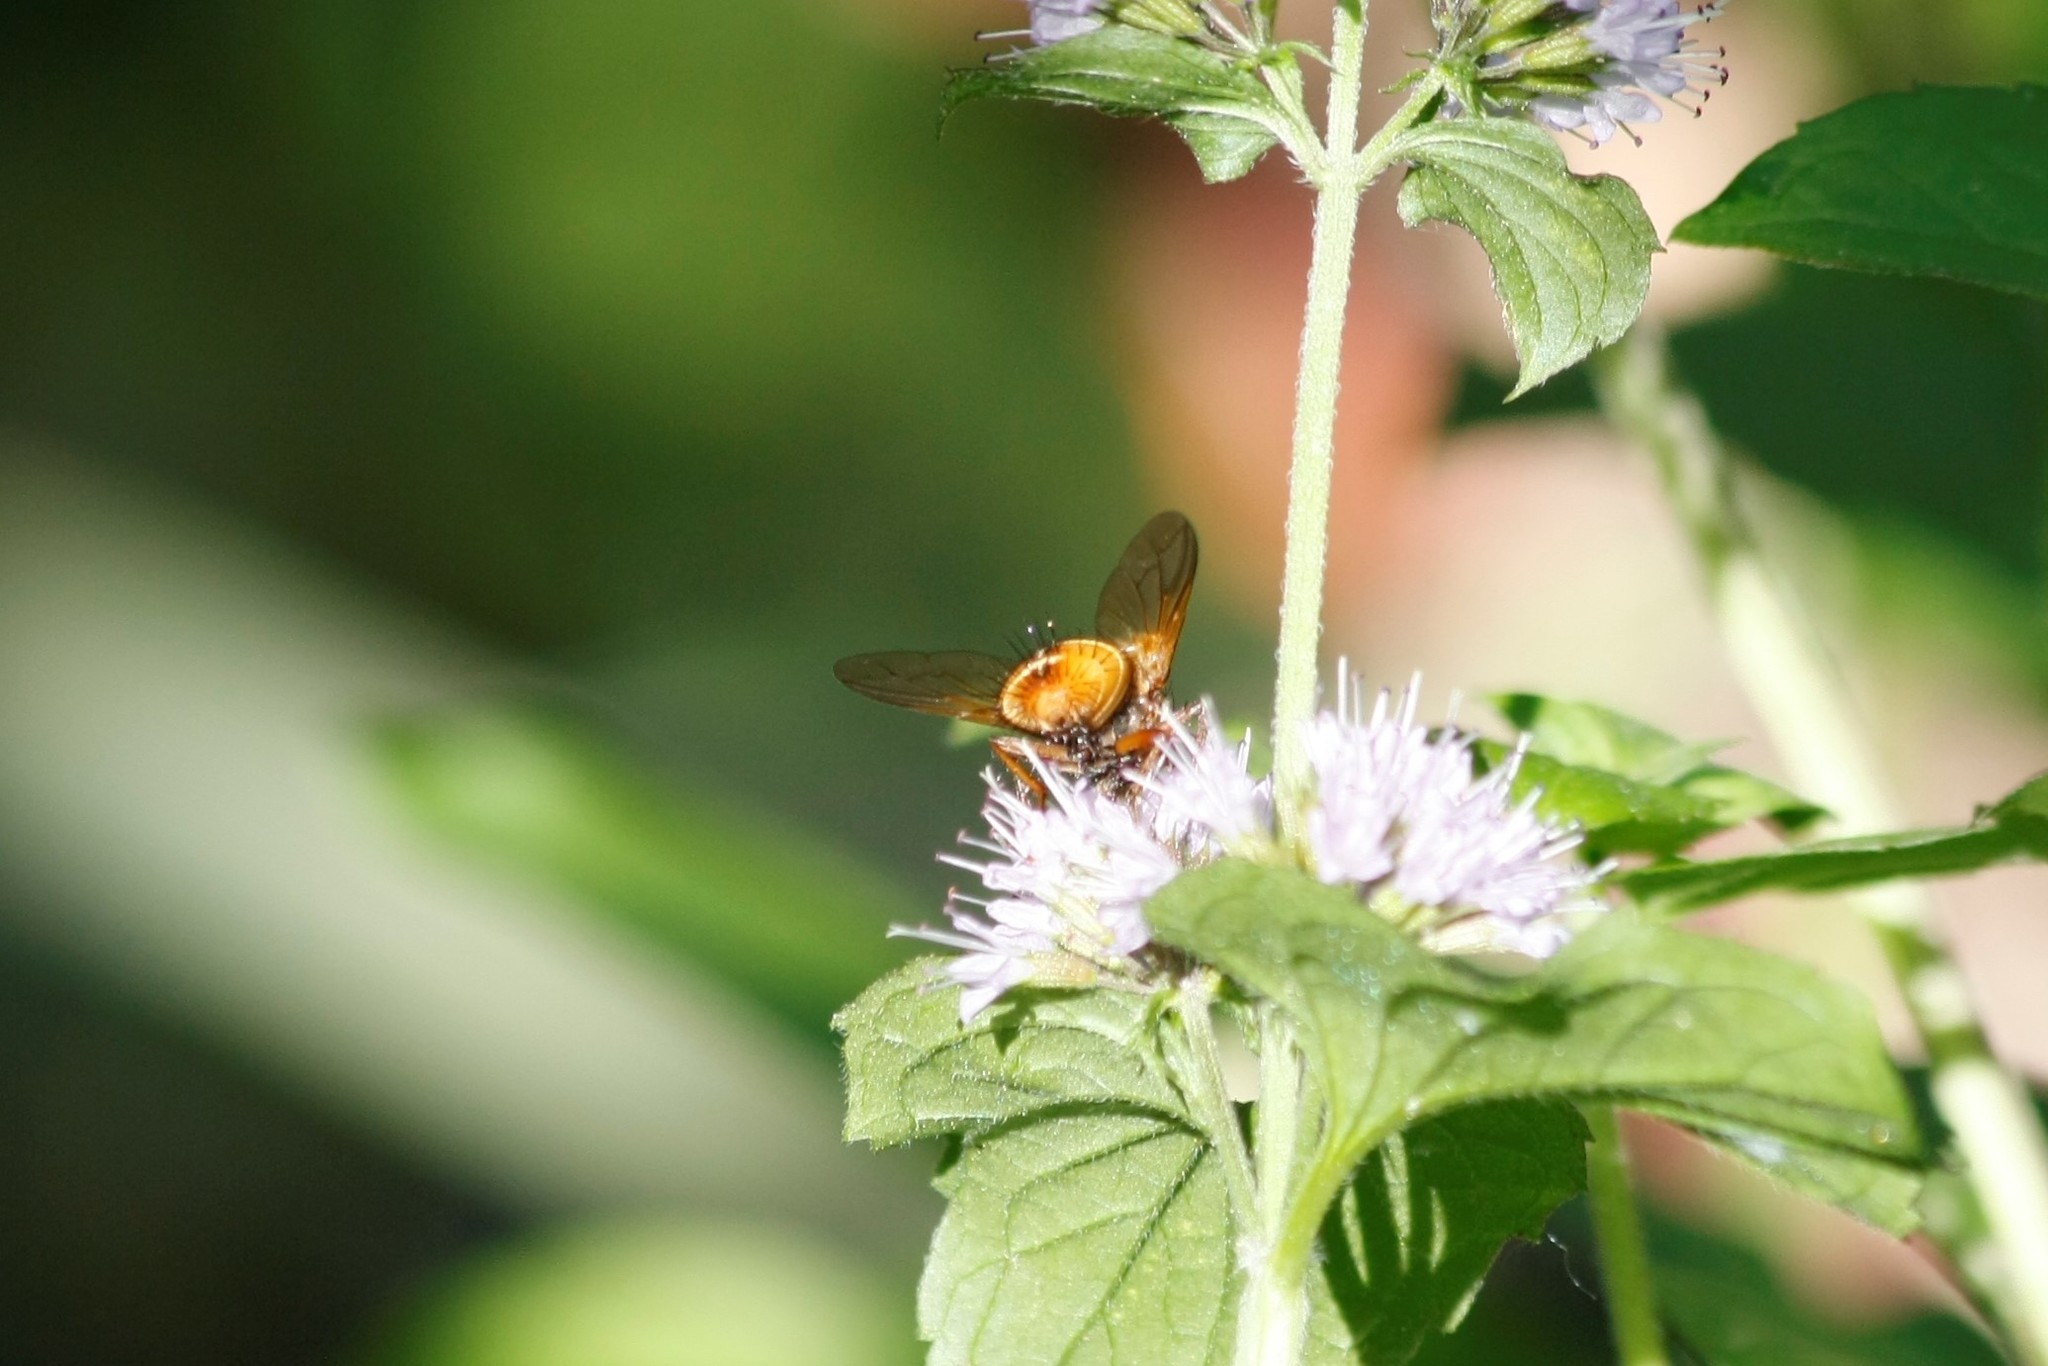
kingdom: Animalia
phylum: Arthropoda
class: Insecta
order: Diptera
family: Tachinidae
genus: Tachina
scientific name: Tachina fera
